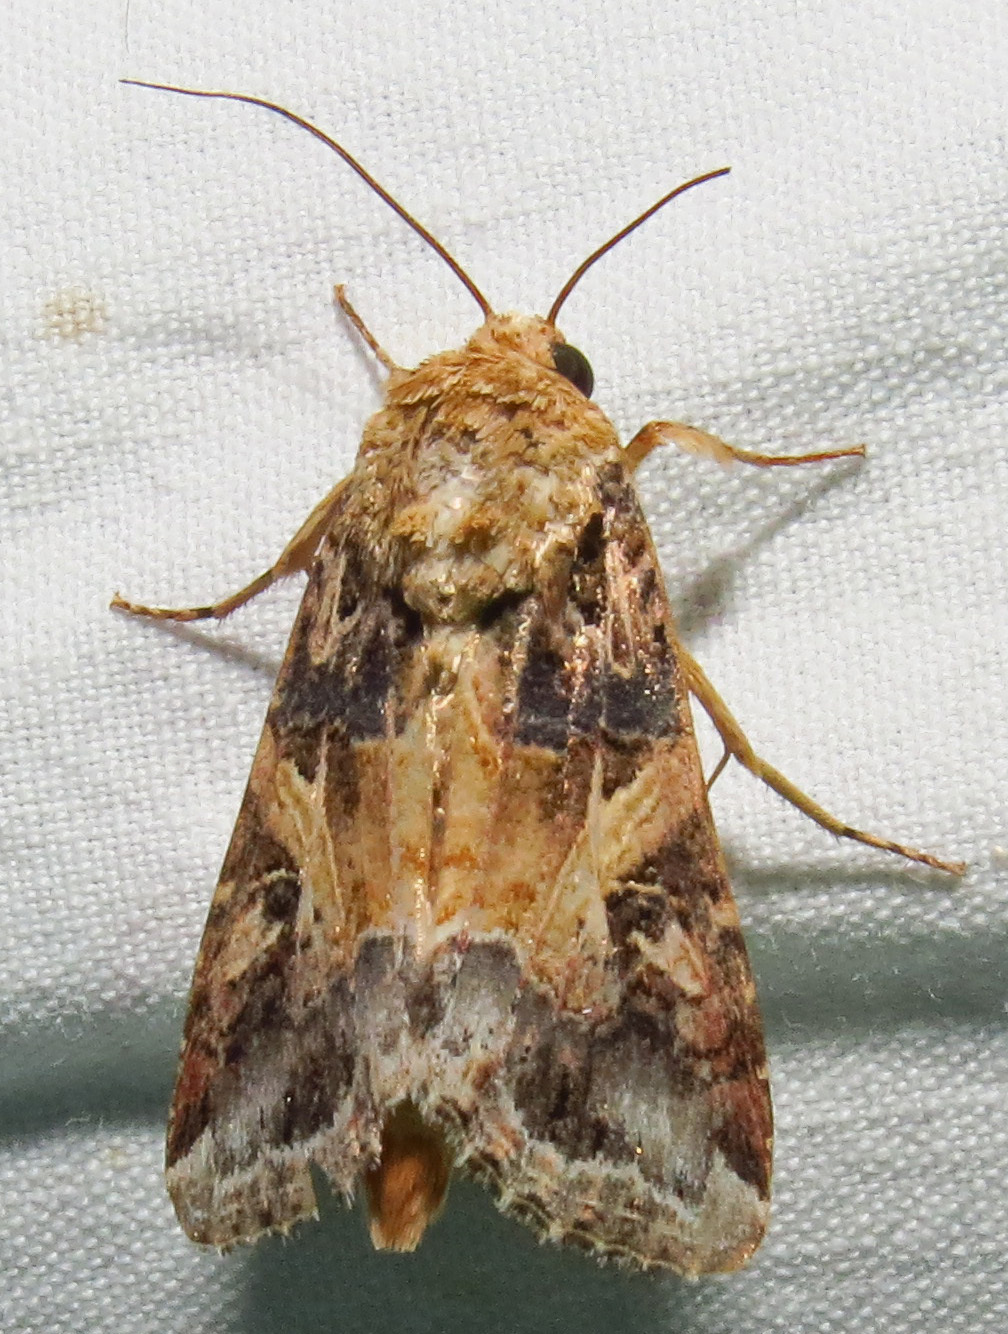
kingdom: Animalia
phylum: Arthropoda
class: Insecta
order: Lepidoptera
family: Noctuidae
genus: Spodoptera
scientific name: Spodoptera ornithogalli
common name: Yellow-striped armyworm
